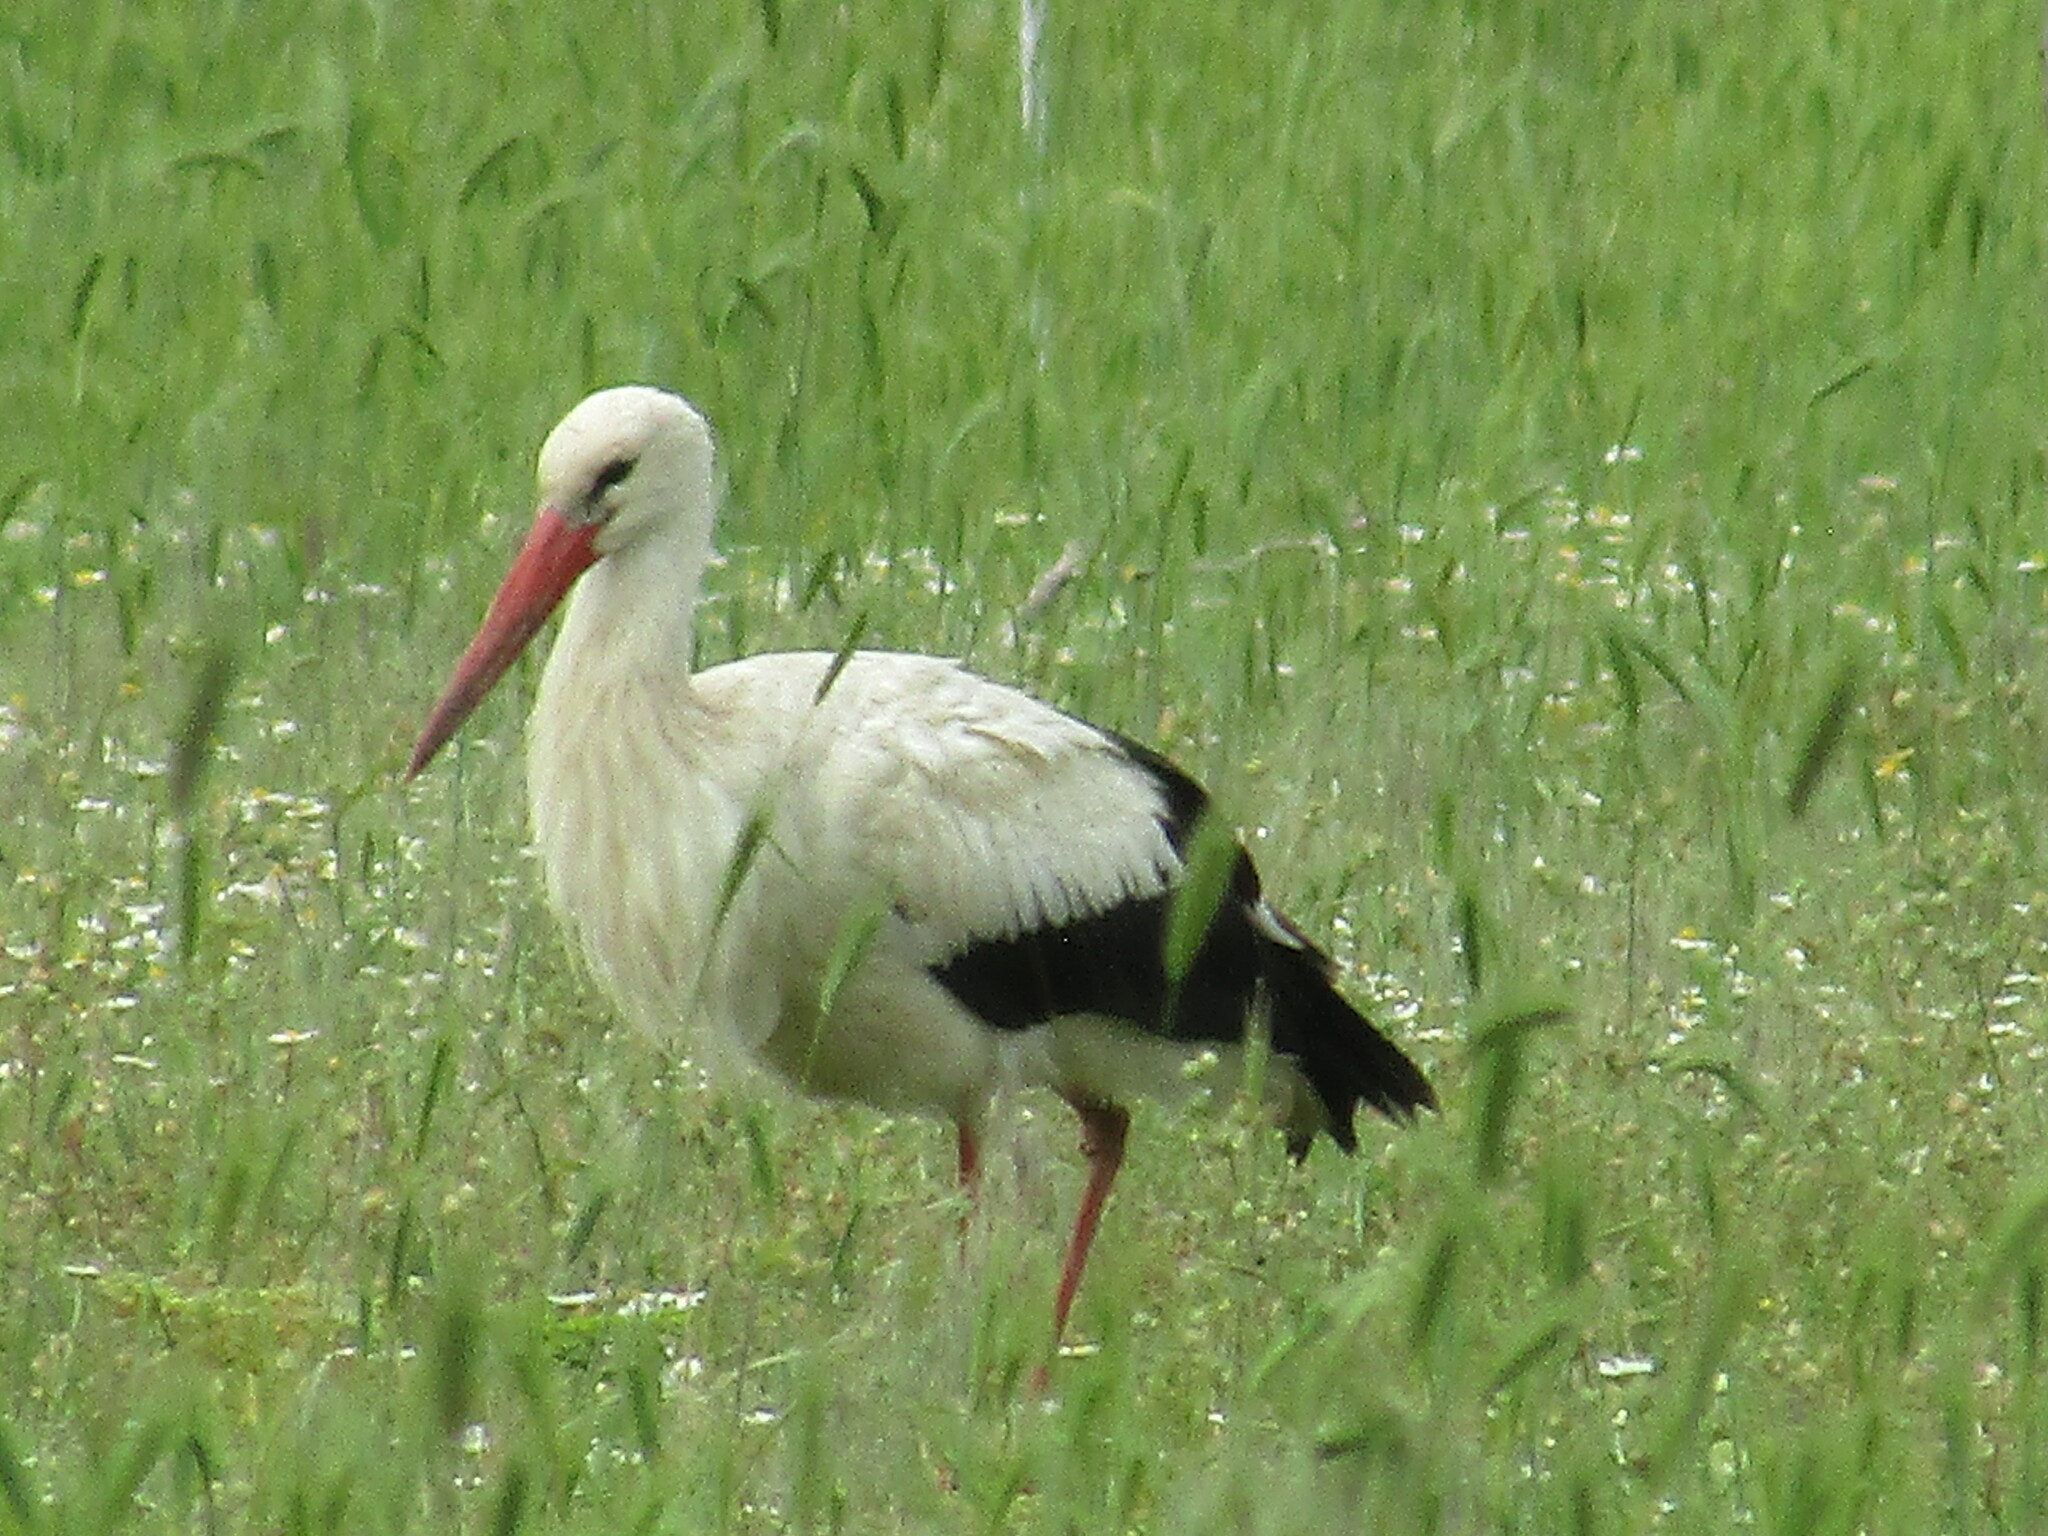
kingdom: Animalia
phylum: Chordata
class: Aves
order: Ciconiiformes
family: Ciconiidae
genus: Ciconia
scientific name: Ciconia ciconia
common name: White stork
